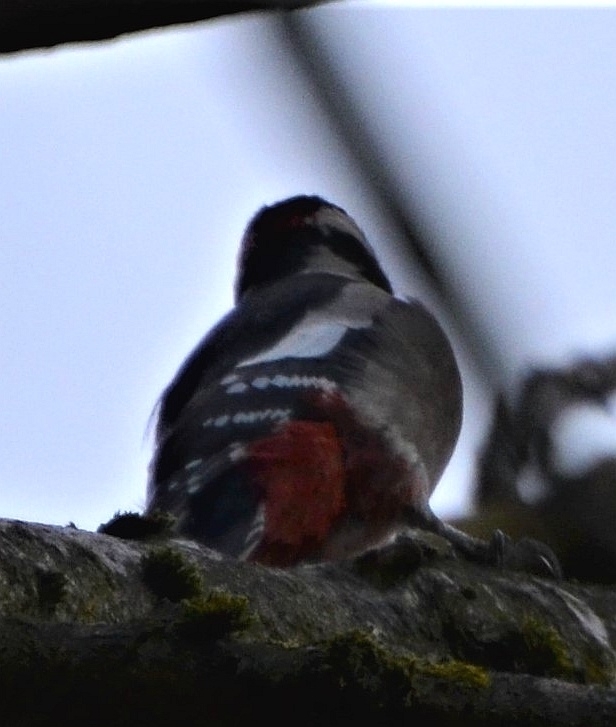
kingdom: Animalia
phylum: Chordata
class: Aves
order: Piciformes
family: Picidae
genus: Dendrocopos
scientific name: Dendrocopos major
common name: Great spotted woodpecker
